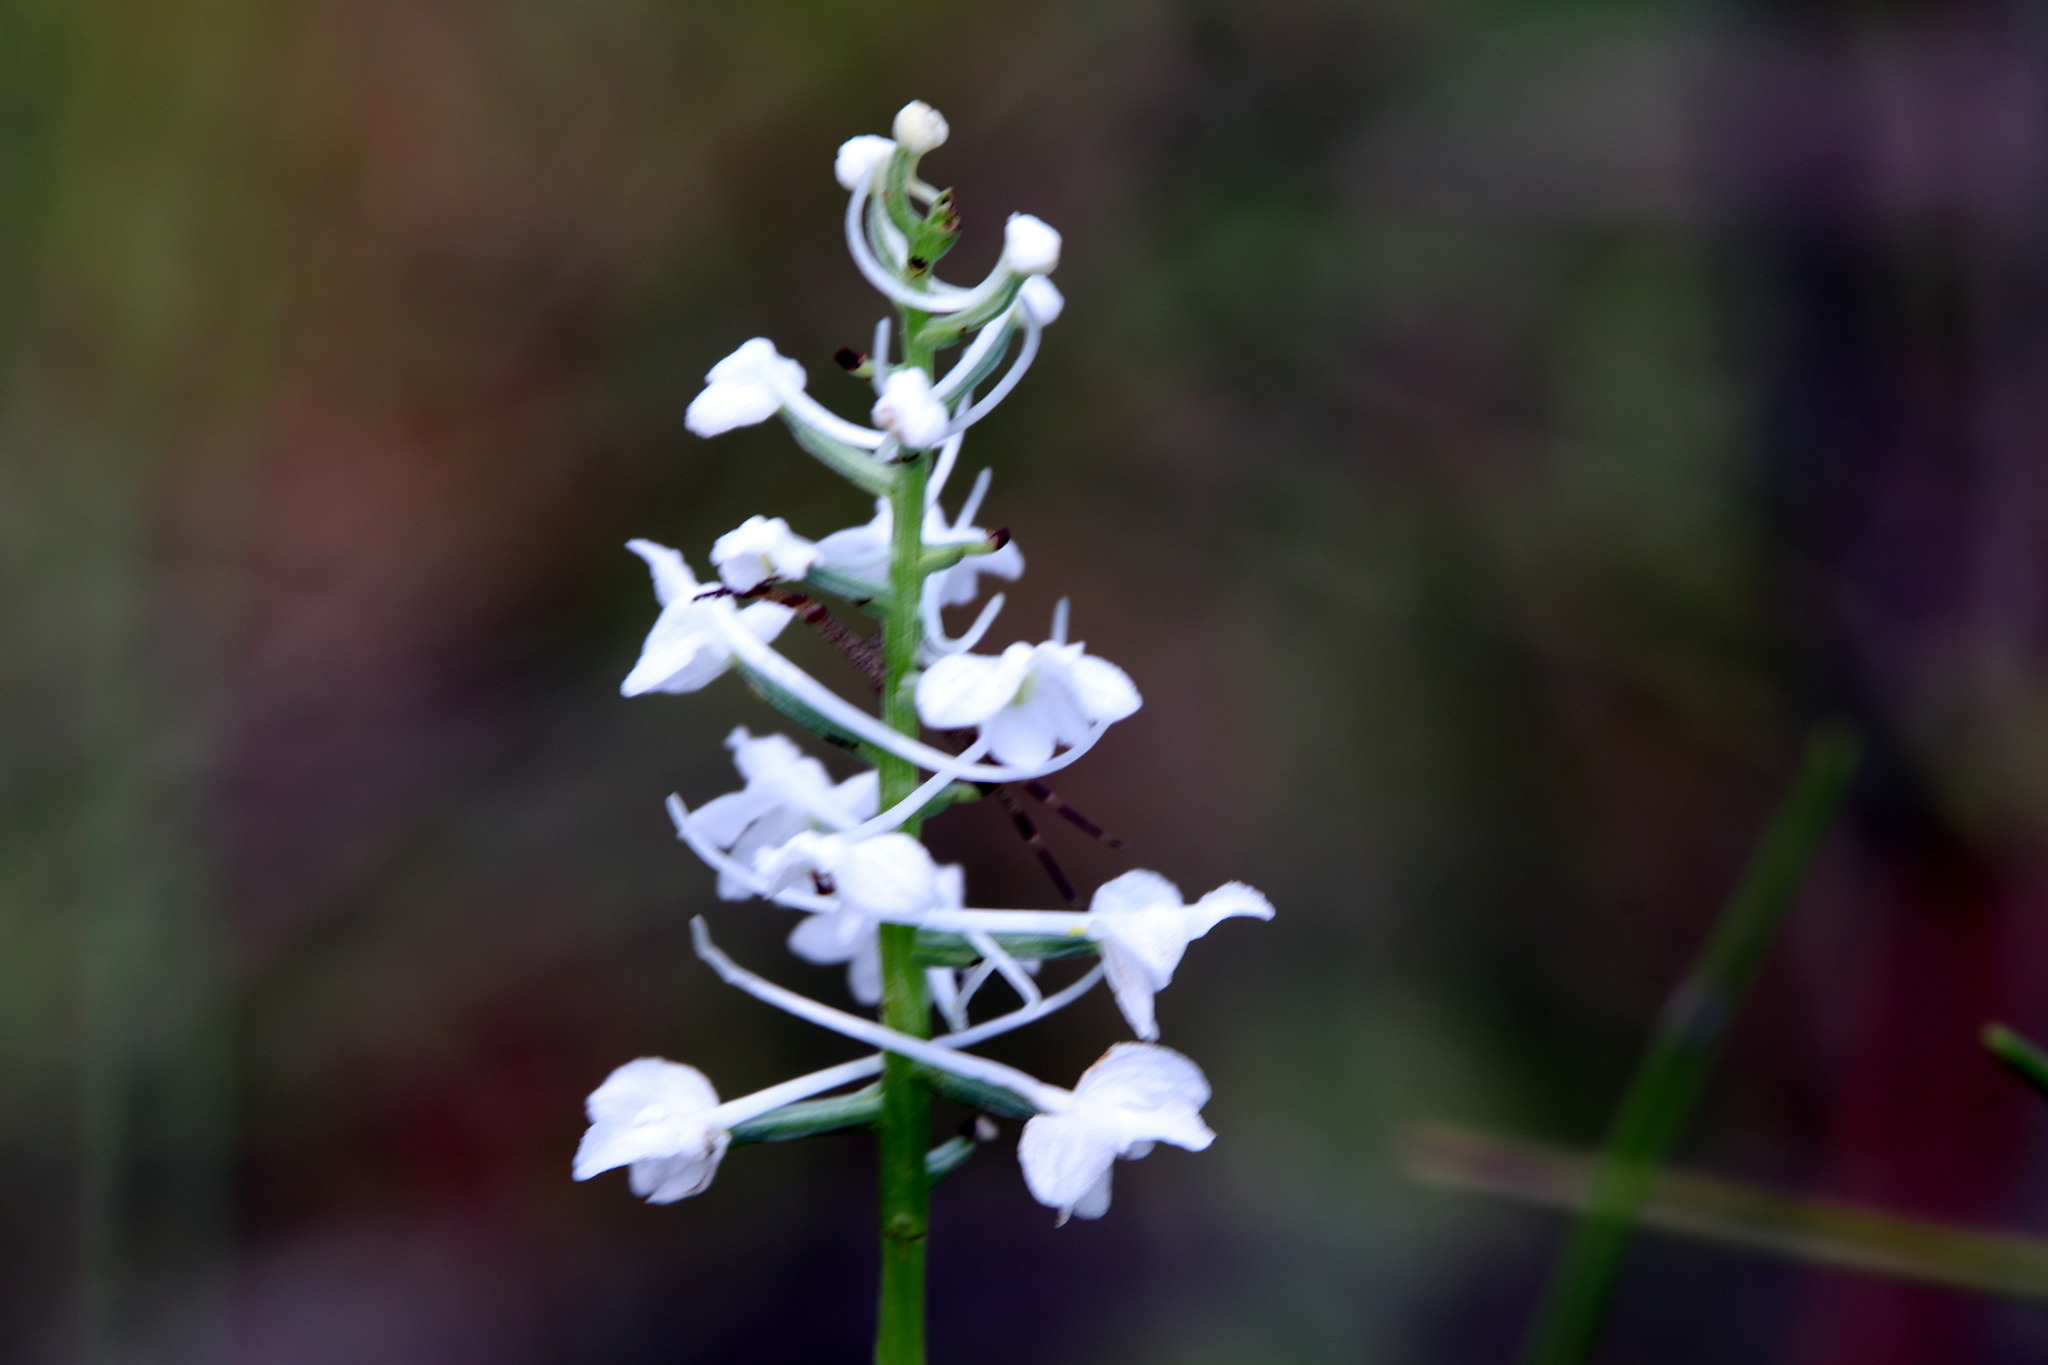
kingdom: Plantae
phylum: Tracheophyta
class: Liliopsida
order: Asparagales
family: Orchidaceae
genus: Platanthera
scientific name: Platanthera nivea
